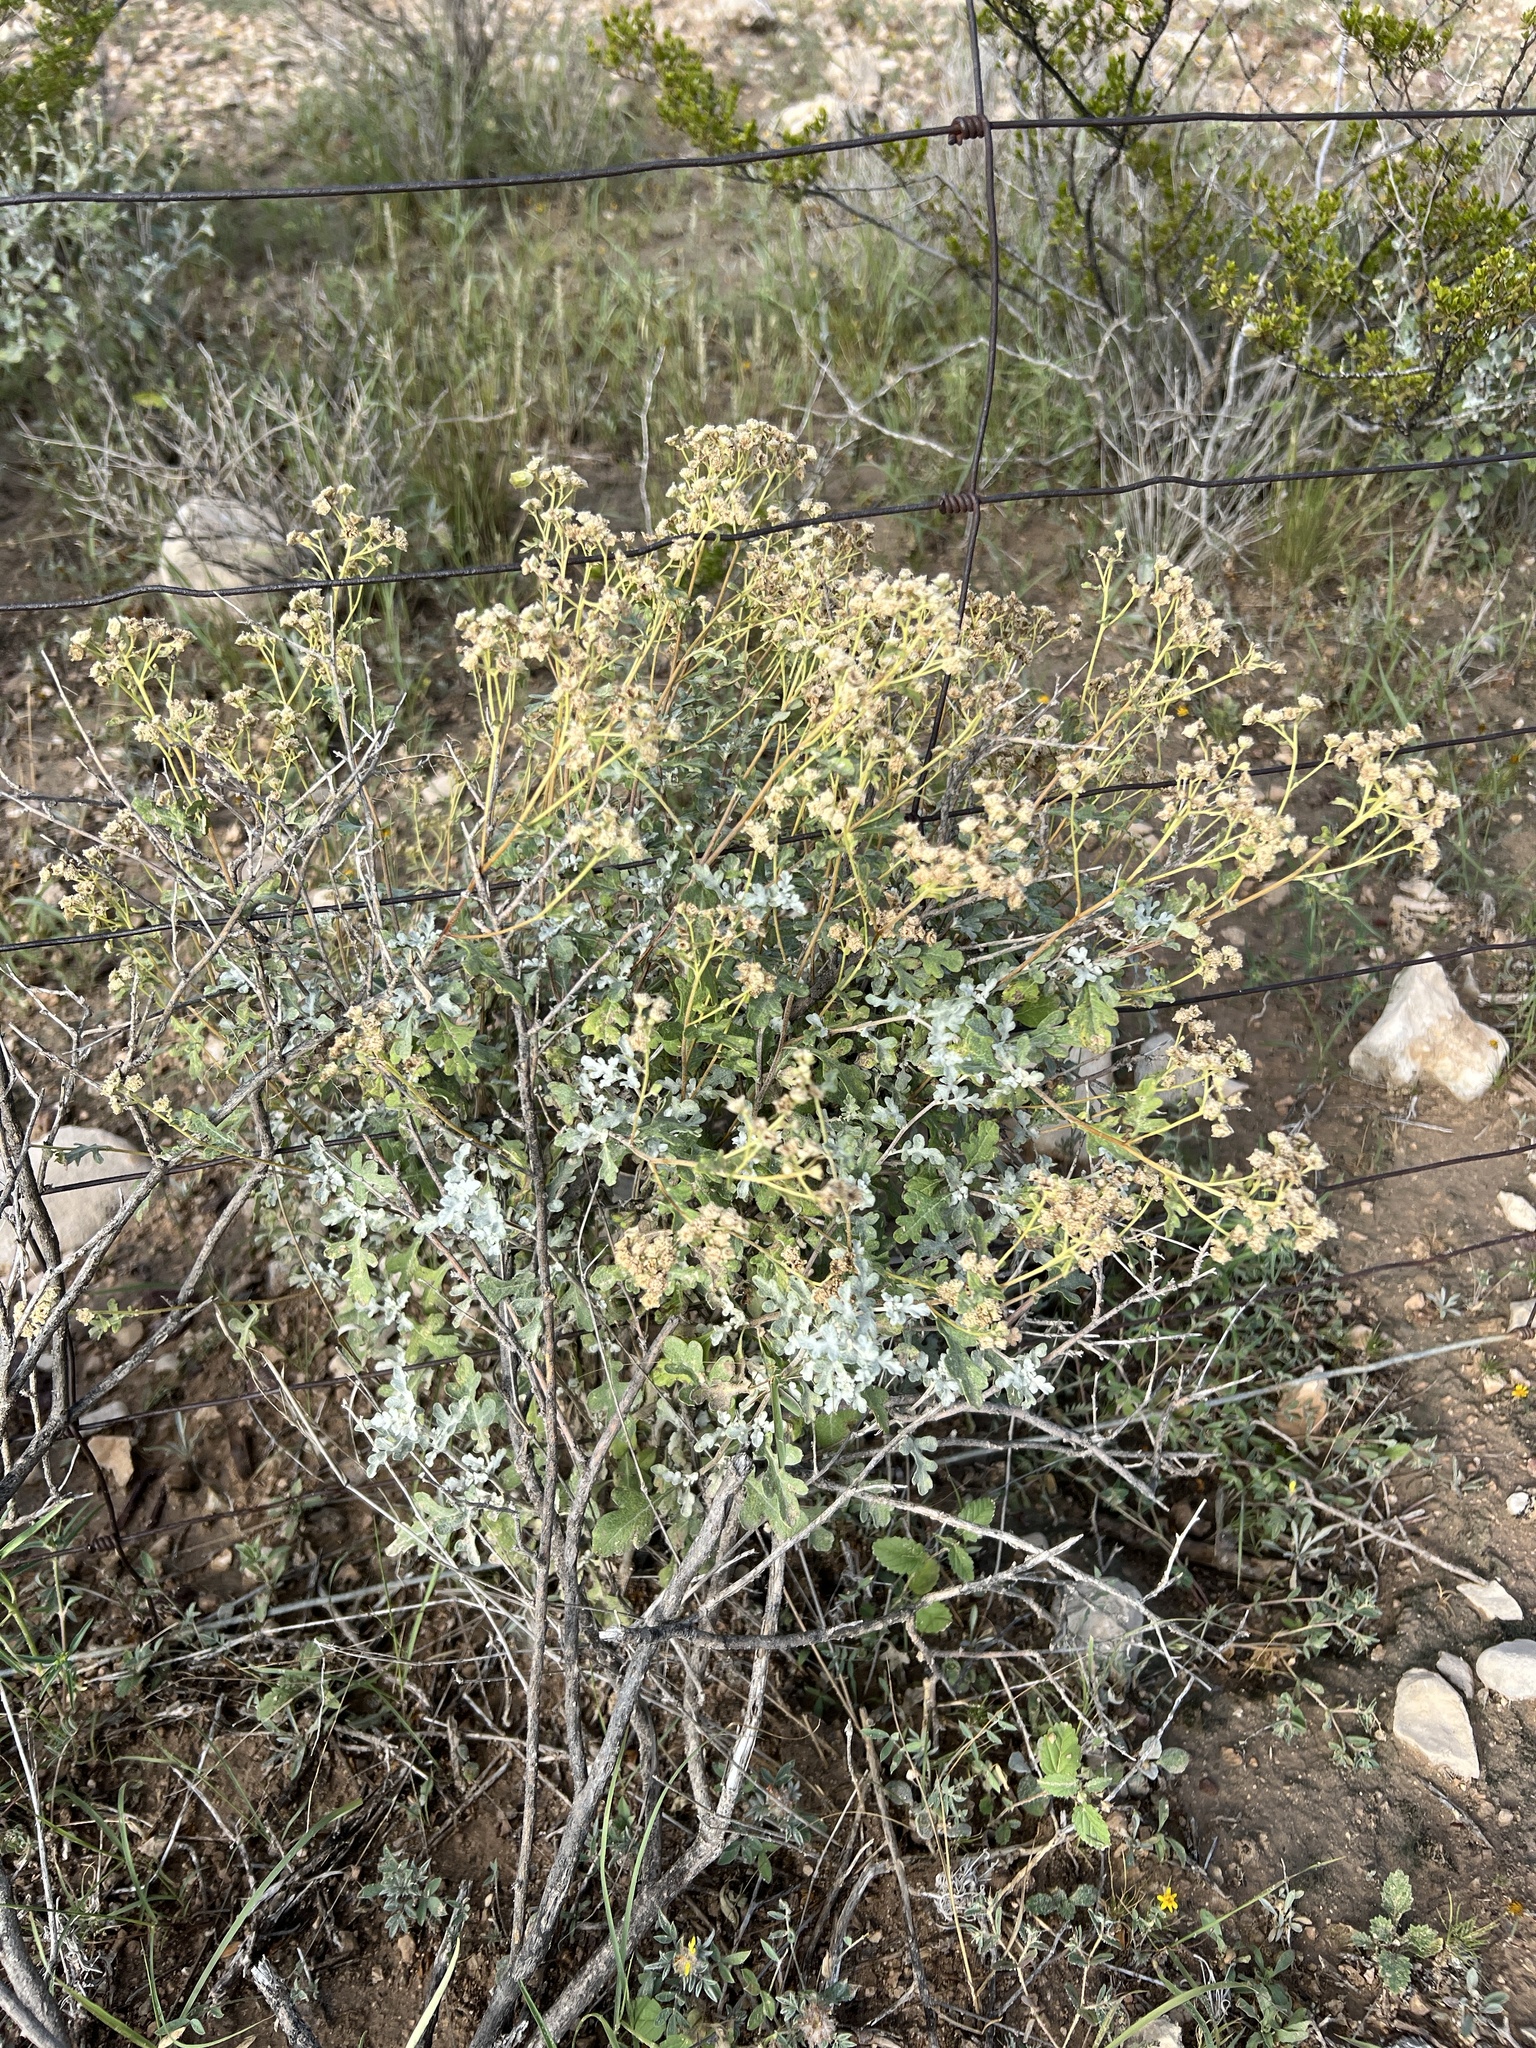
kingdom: Plantae
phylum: Tracheophyta
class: Magnoliopsida
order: Asterales
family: Asteraceae
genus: Parthenium
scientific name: Parthenium incanum
